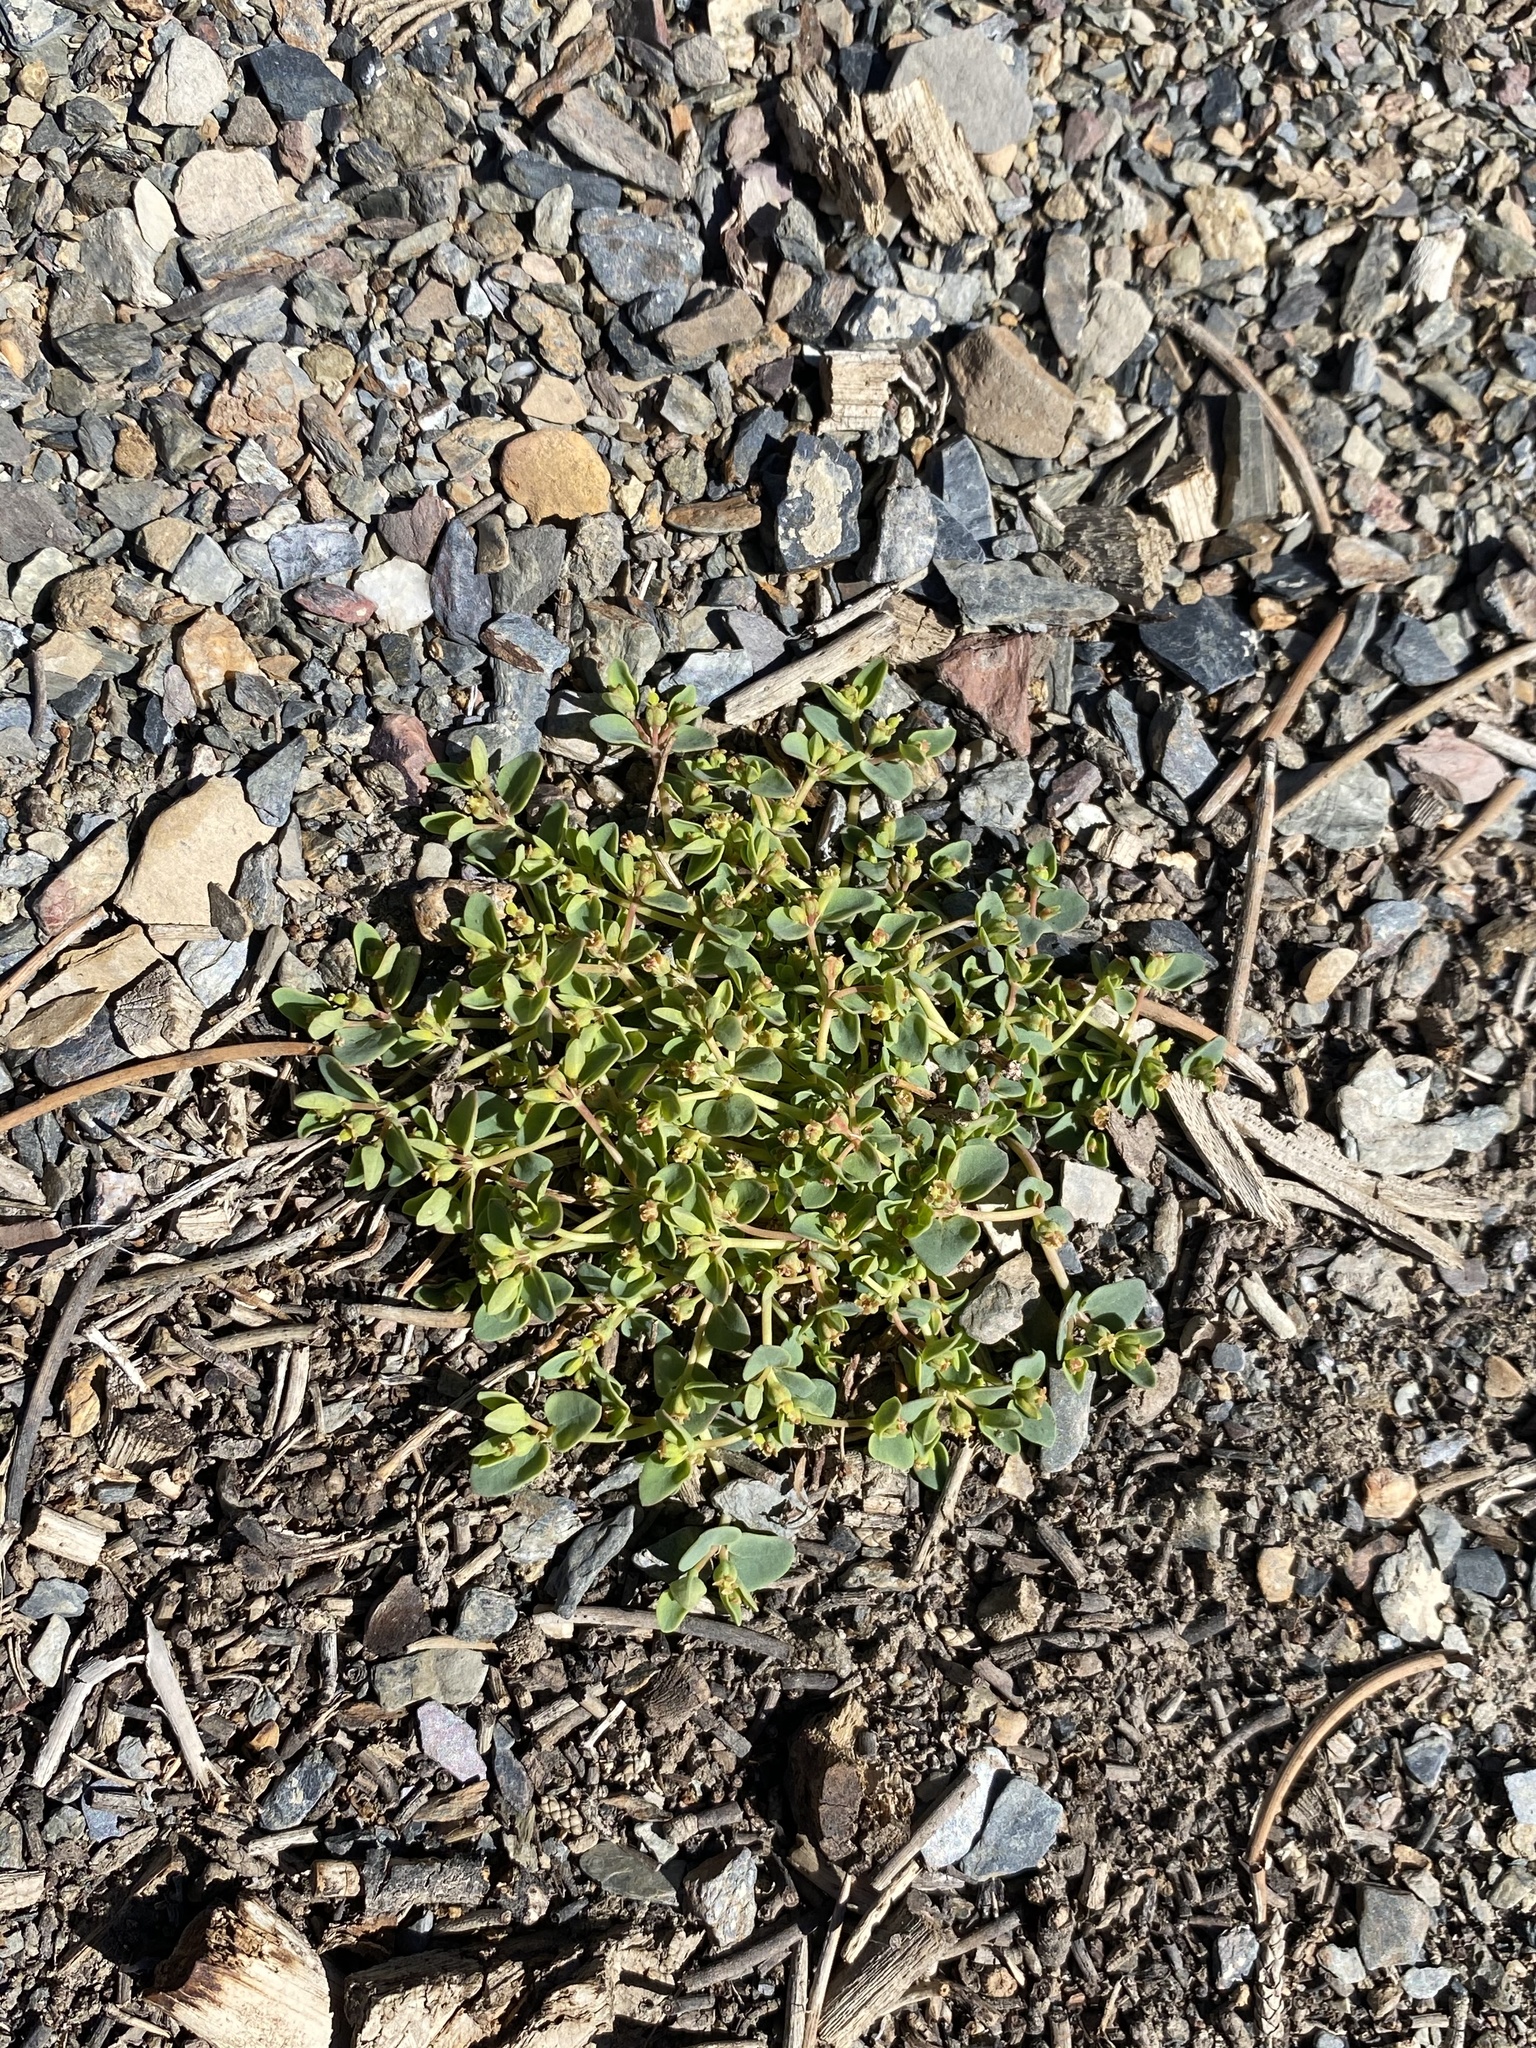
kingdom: Plantae
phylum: Tracheophyta
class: Magnoliopsida
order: Malpighiales
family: Euphorbiaceae
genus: Euphorbia
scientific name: Euphorbia fendleri
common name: Fendler's euphorbia
